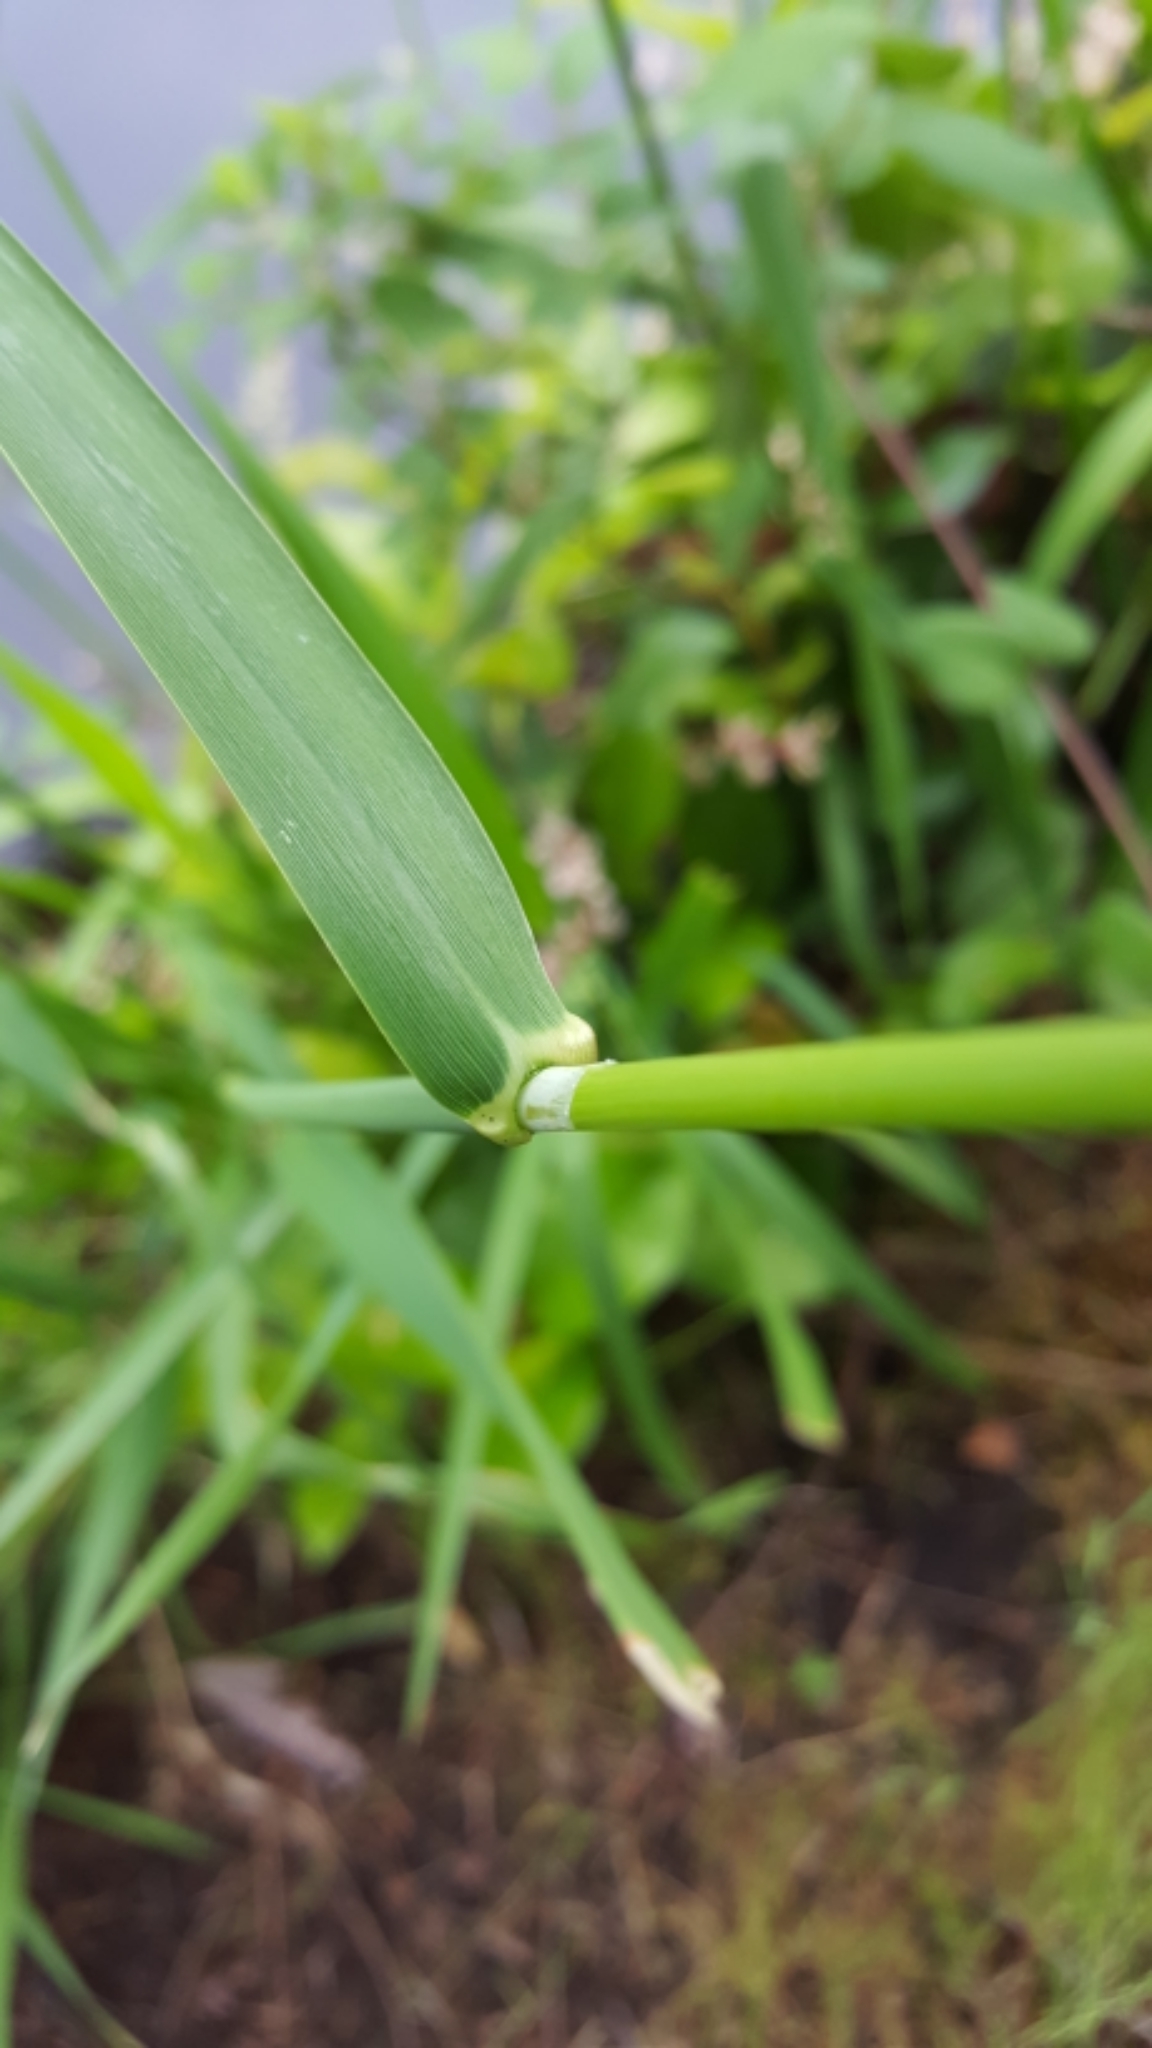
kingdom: Plantae
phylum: Tracheophyta
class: Liliopsida
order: Poales
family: Poaceae
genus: Phalaris
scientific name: Phalaris arundinacea
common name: Reed canary-grass
